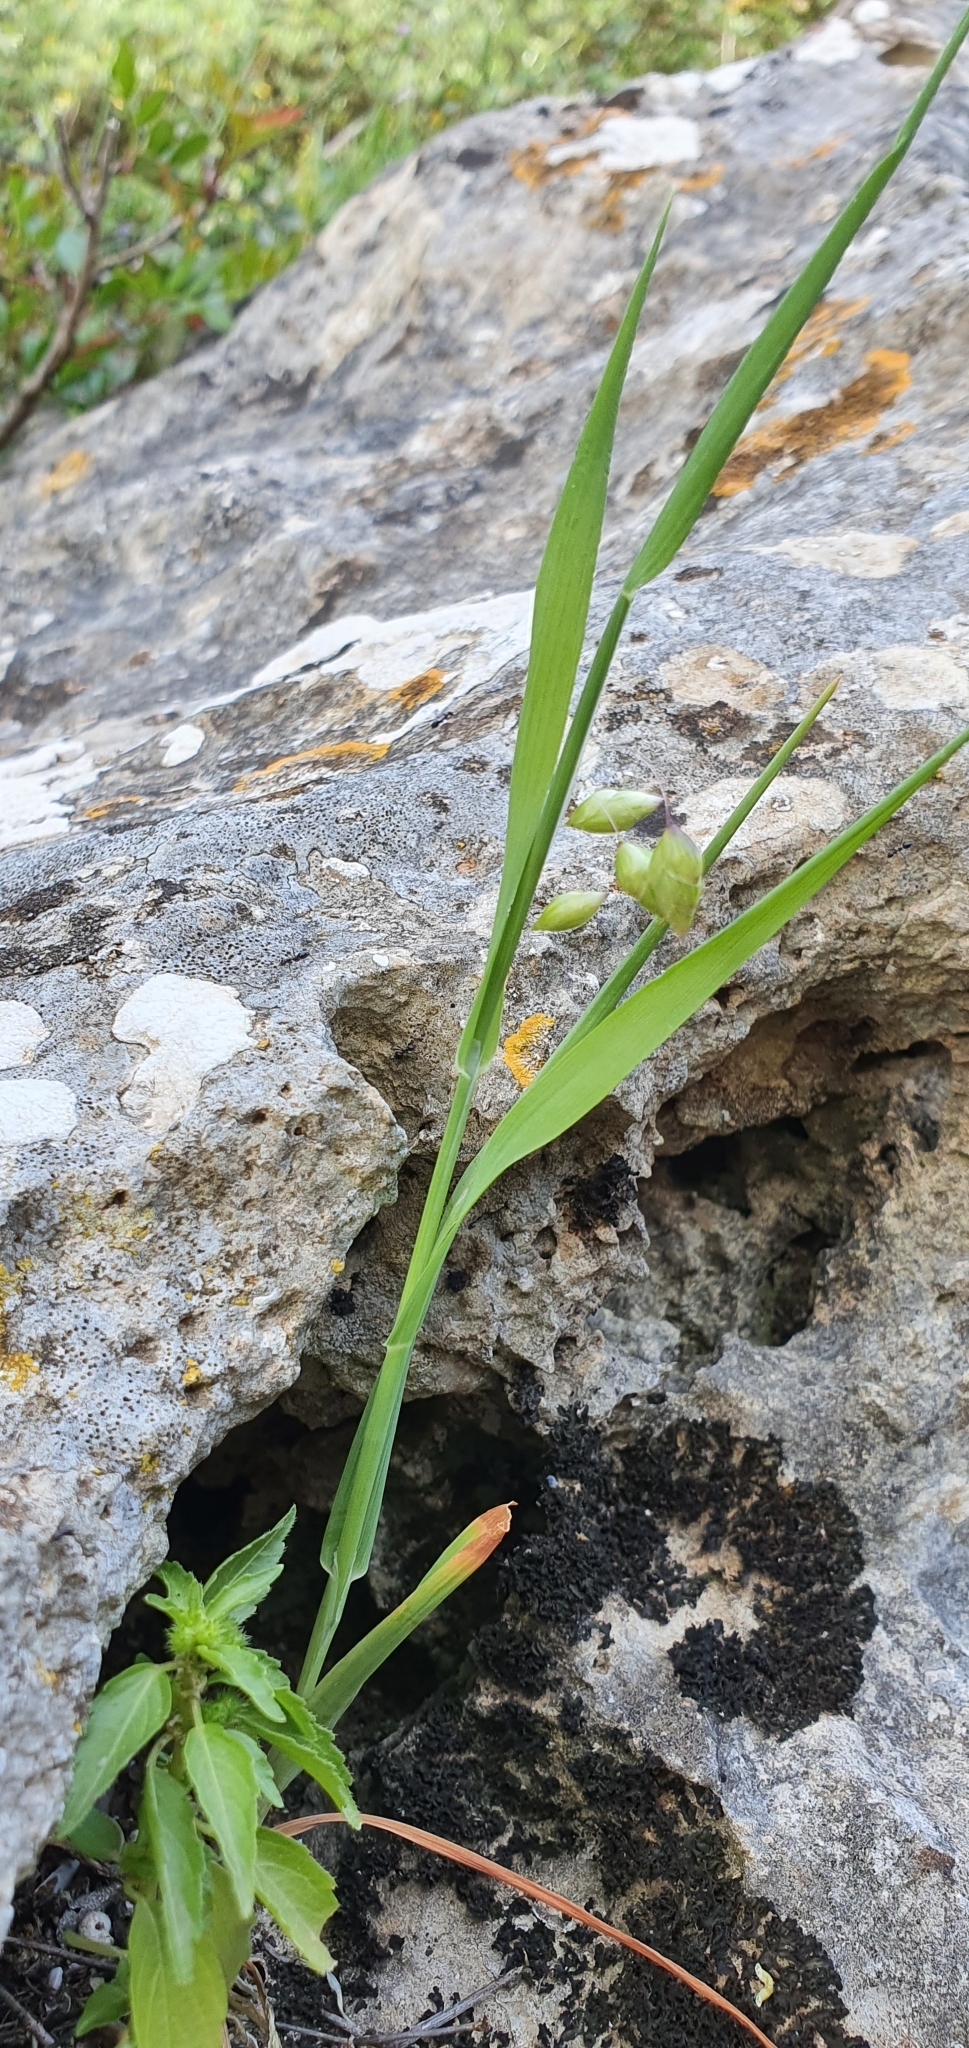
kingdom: Plantae
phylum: Tracheophyta
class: Liliopsida
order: Poales
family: Poaceae
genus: Briza
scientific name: Briza maxima
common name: Big quakinggrass
